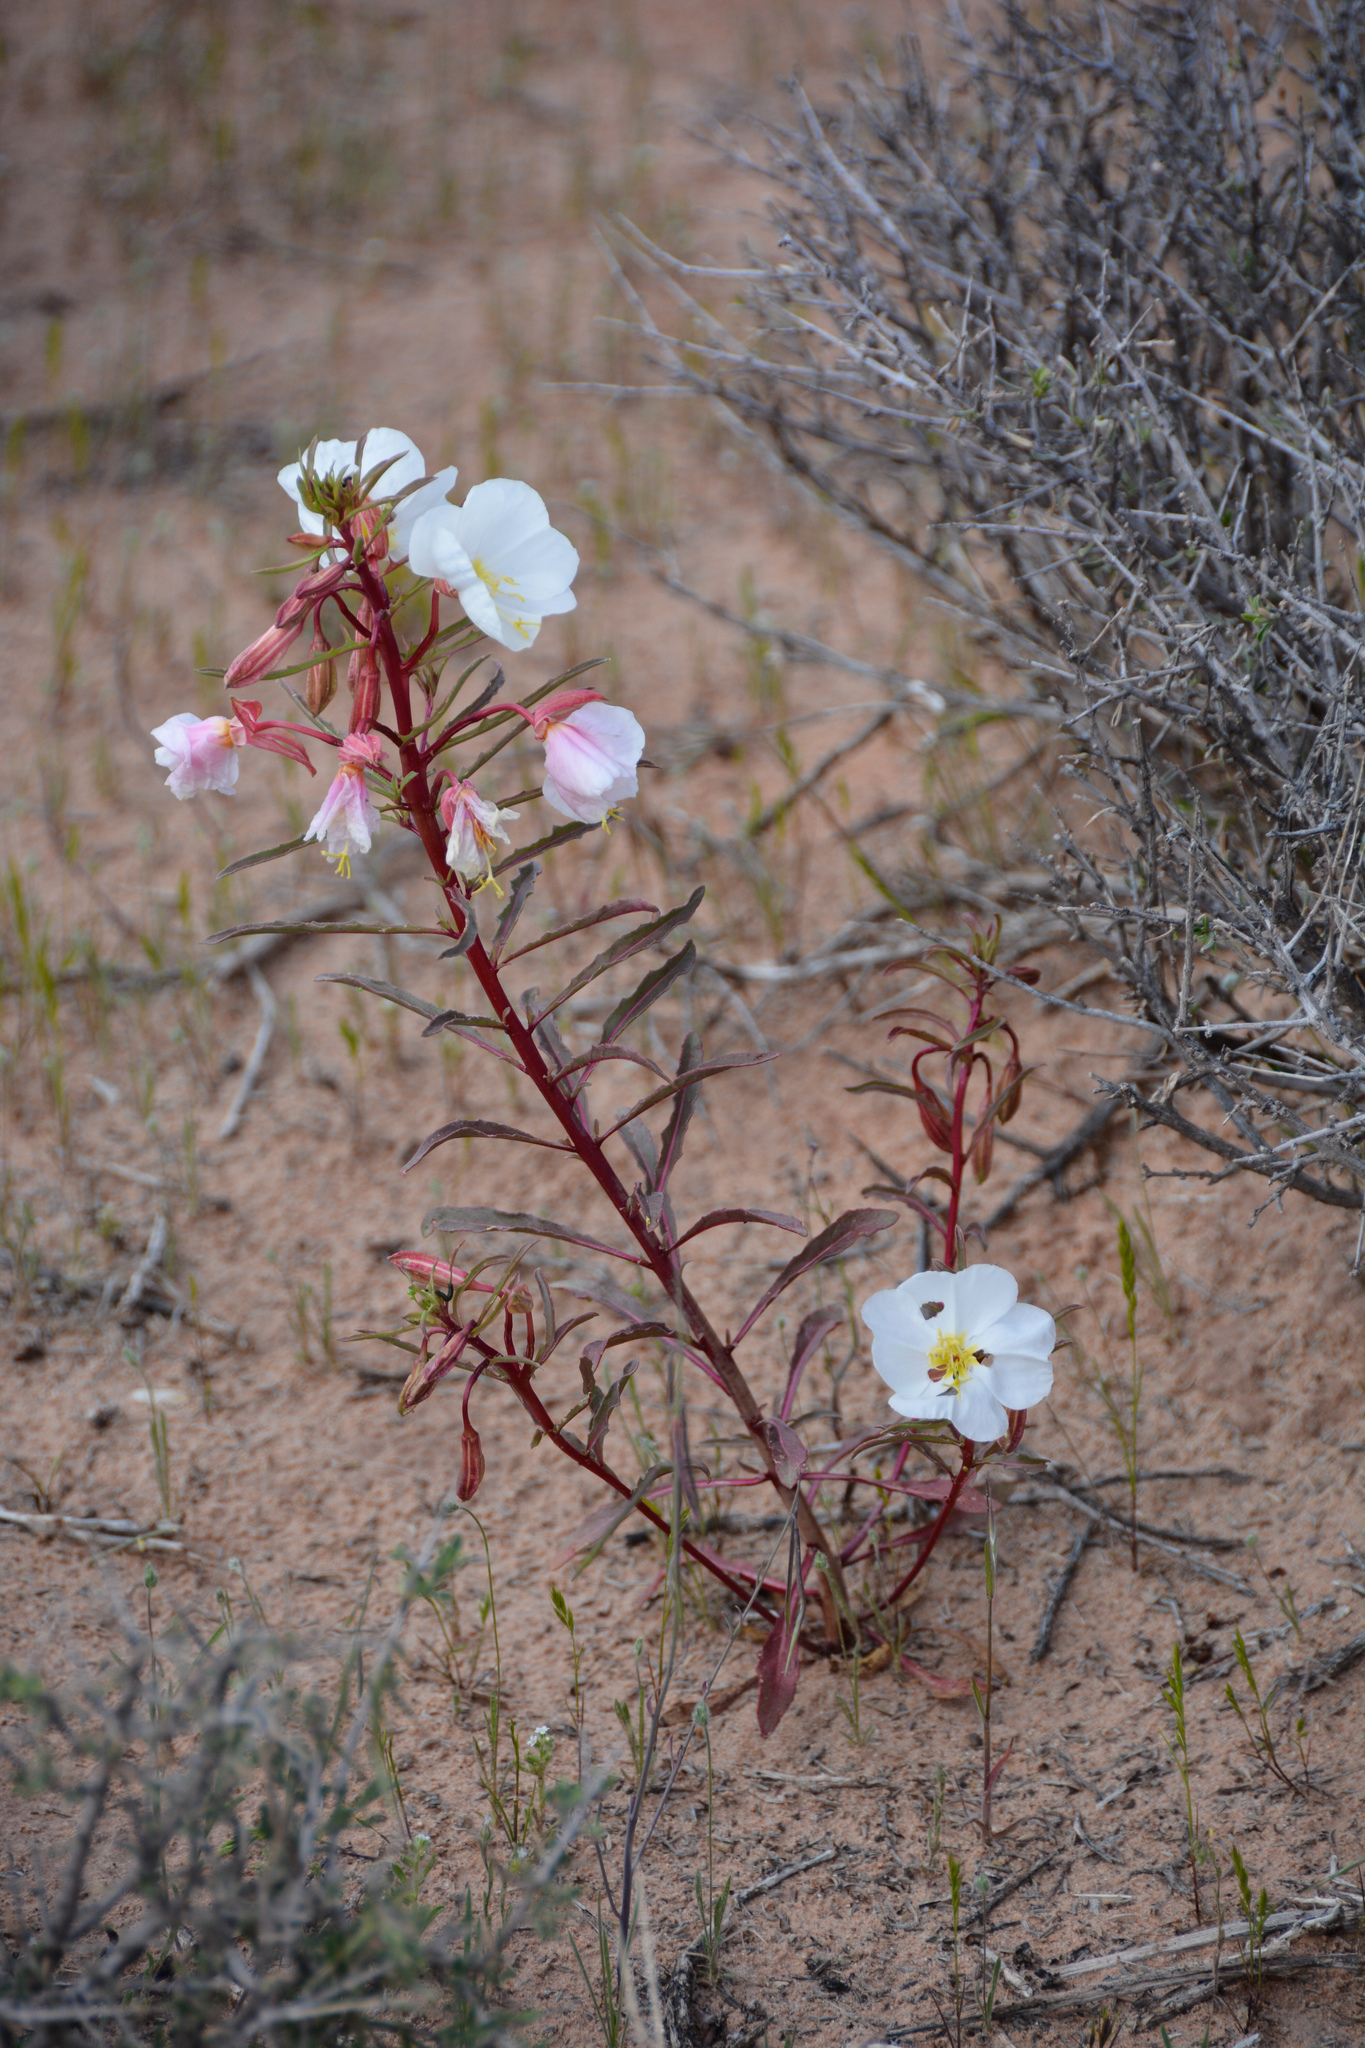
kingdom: Plantae
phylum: Tracheophyta
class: Magnoliopsida
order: Myrtales
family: Onagraceae
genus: Oenothera
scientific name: Oenothera pallida
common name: Pale evening-primrose
